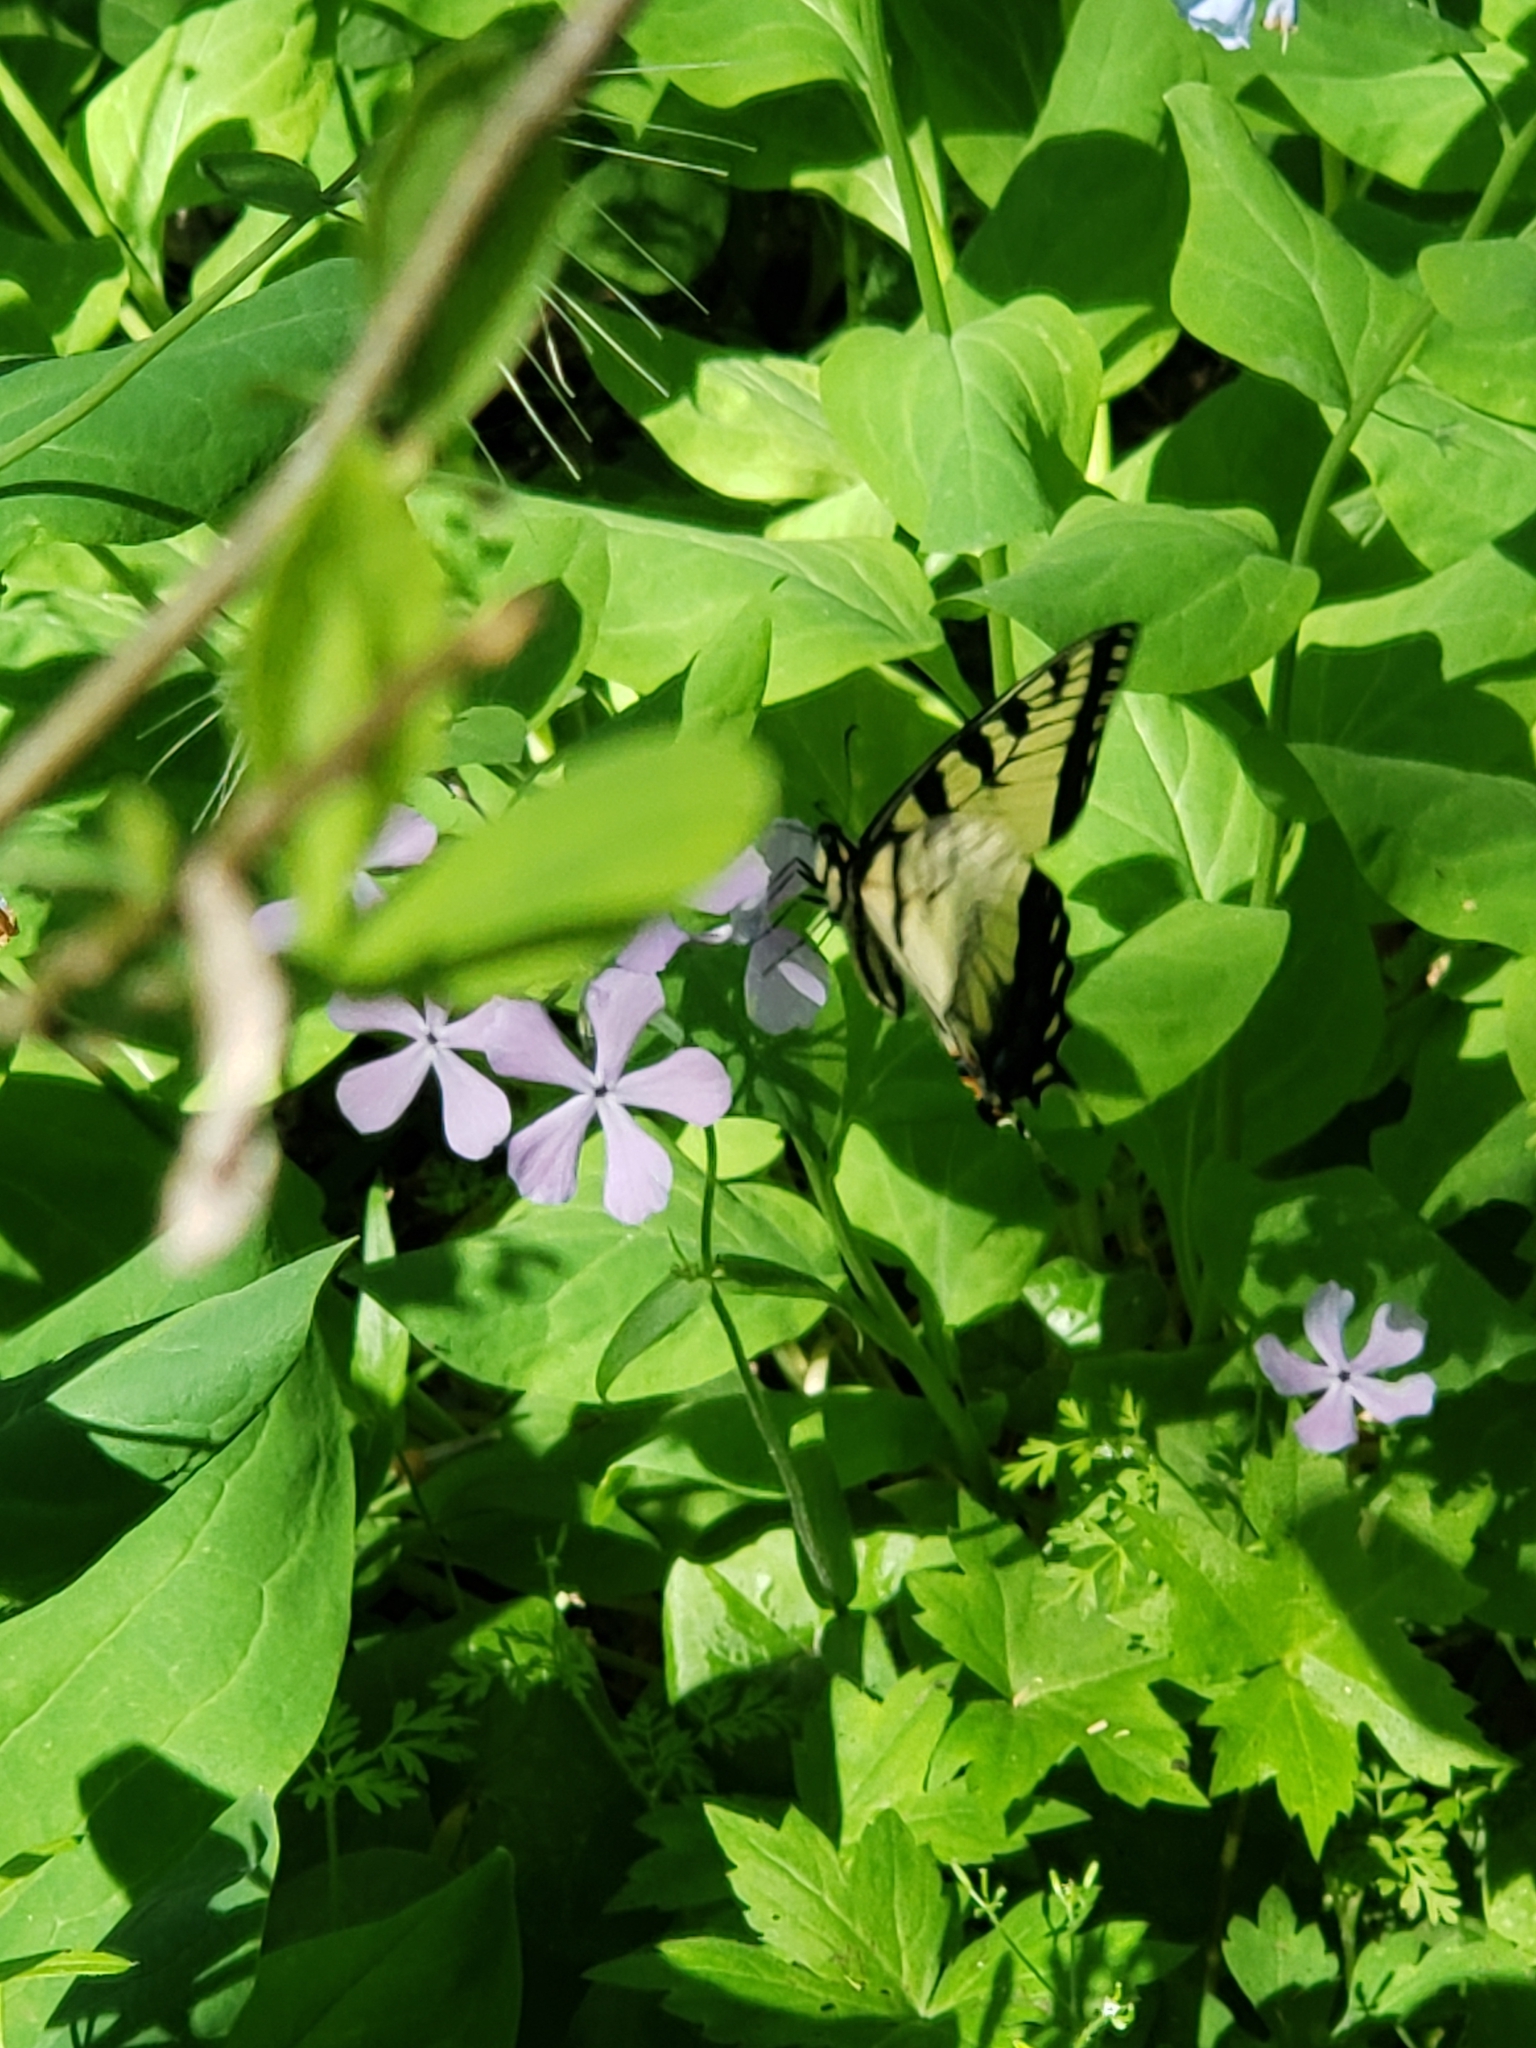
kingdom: Animalia
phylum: Arthropoda
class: Insecta
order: Lepidoptera
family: Papilionidae
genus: Papilio
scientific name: Papilio glaucus
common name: Tiger swallowtail
